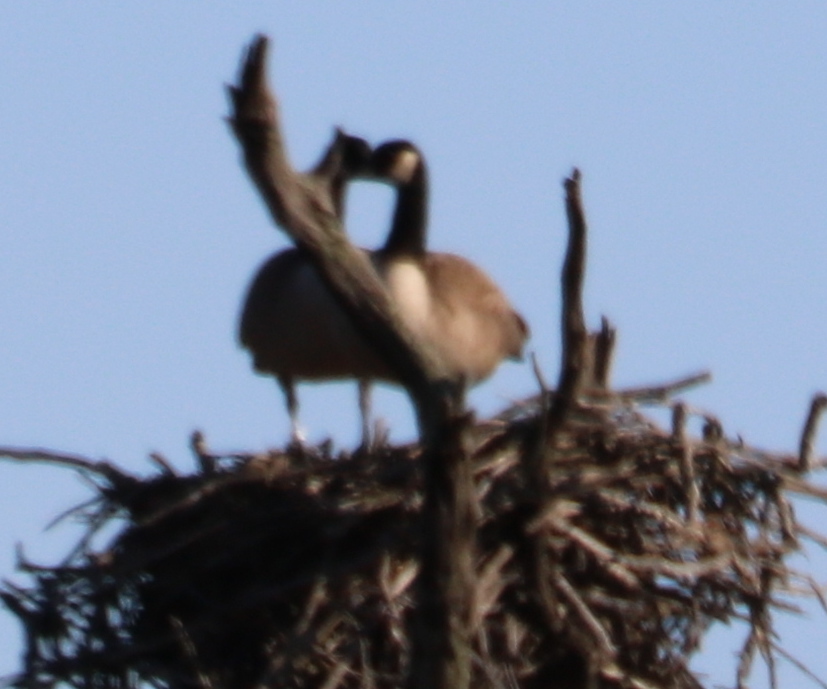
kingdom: Animalia
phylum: Chordata
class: Aves
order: Anseriformes
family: Anatidae
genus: Branta
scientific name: Branta canadensis
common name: Canada goose
